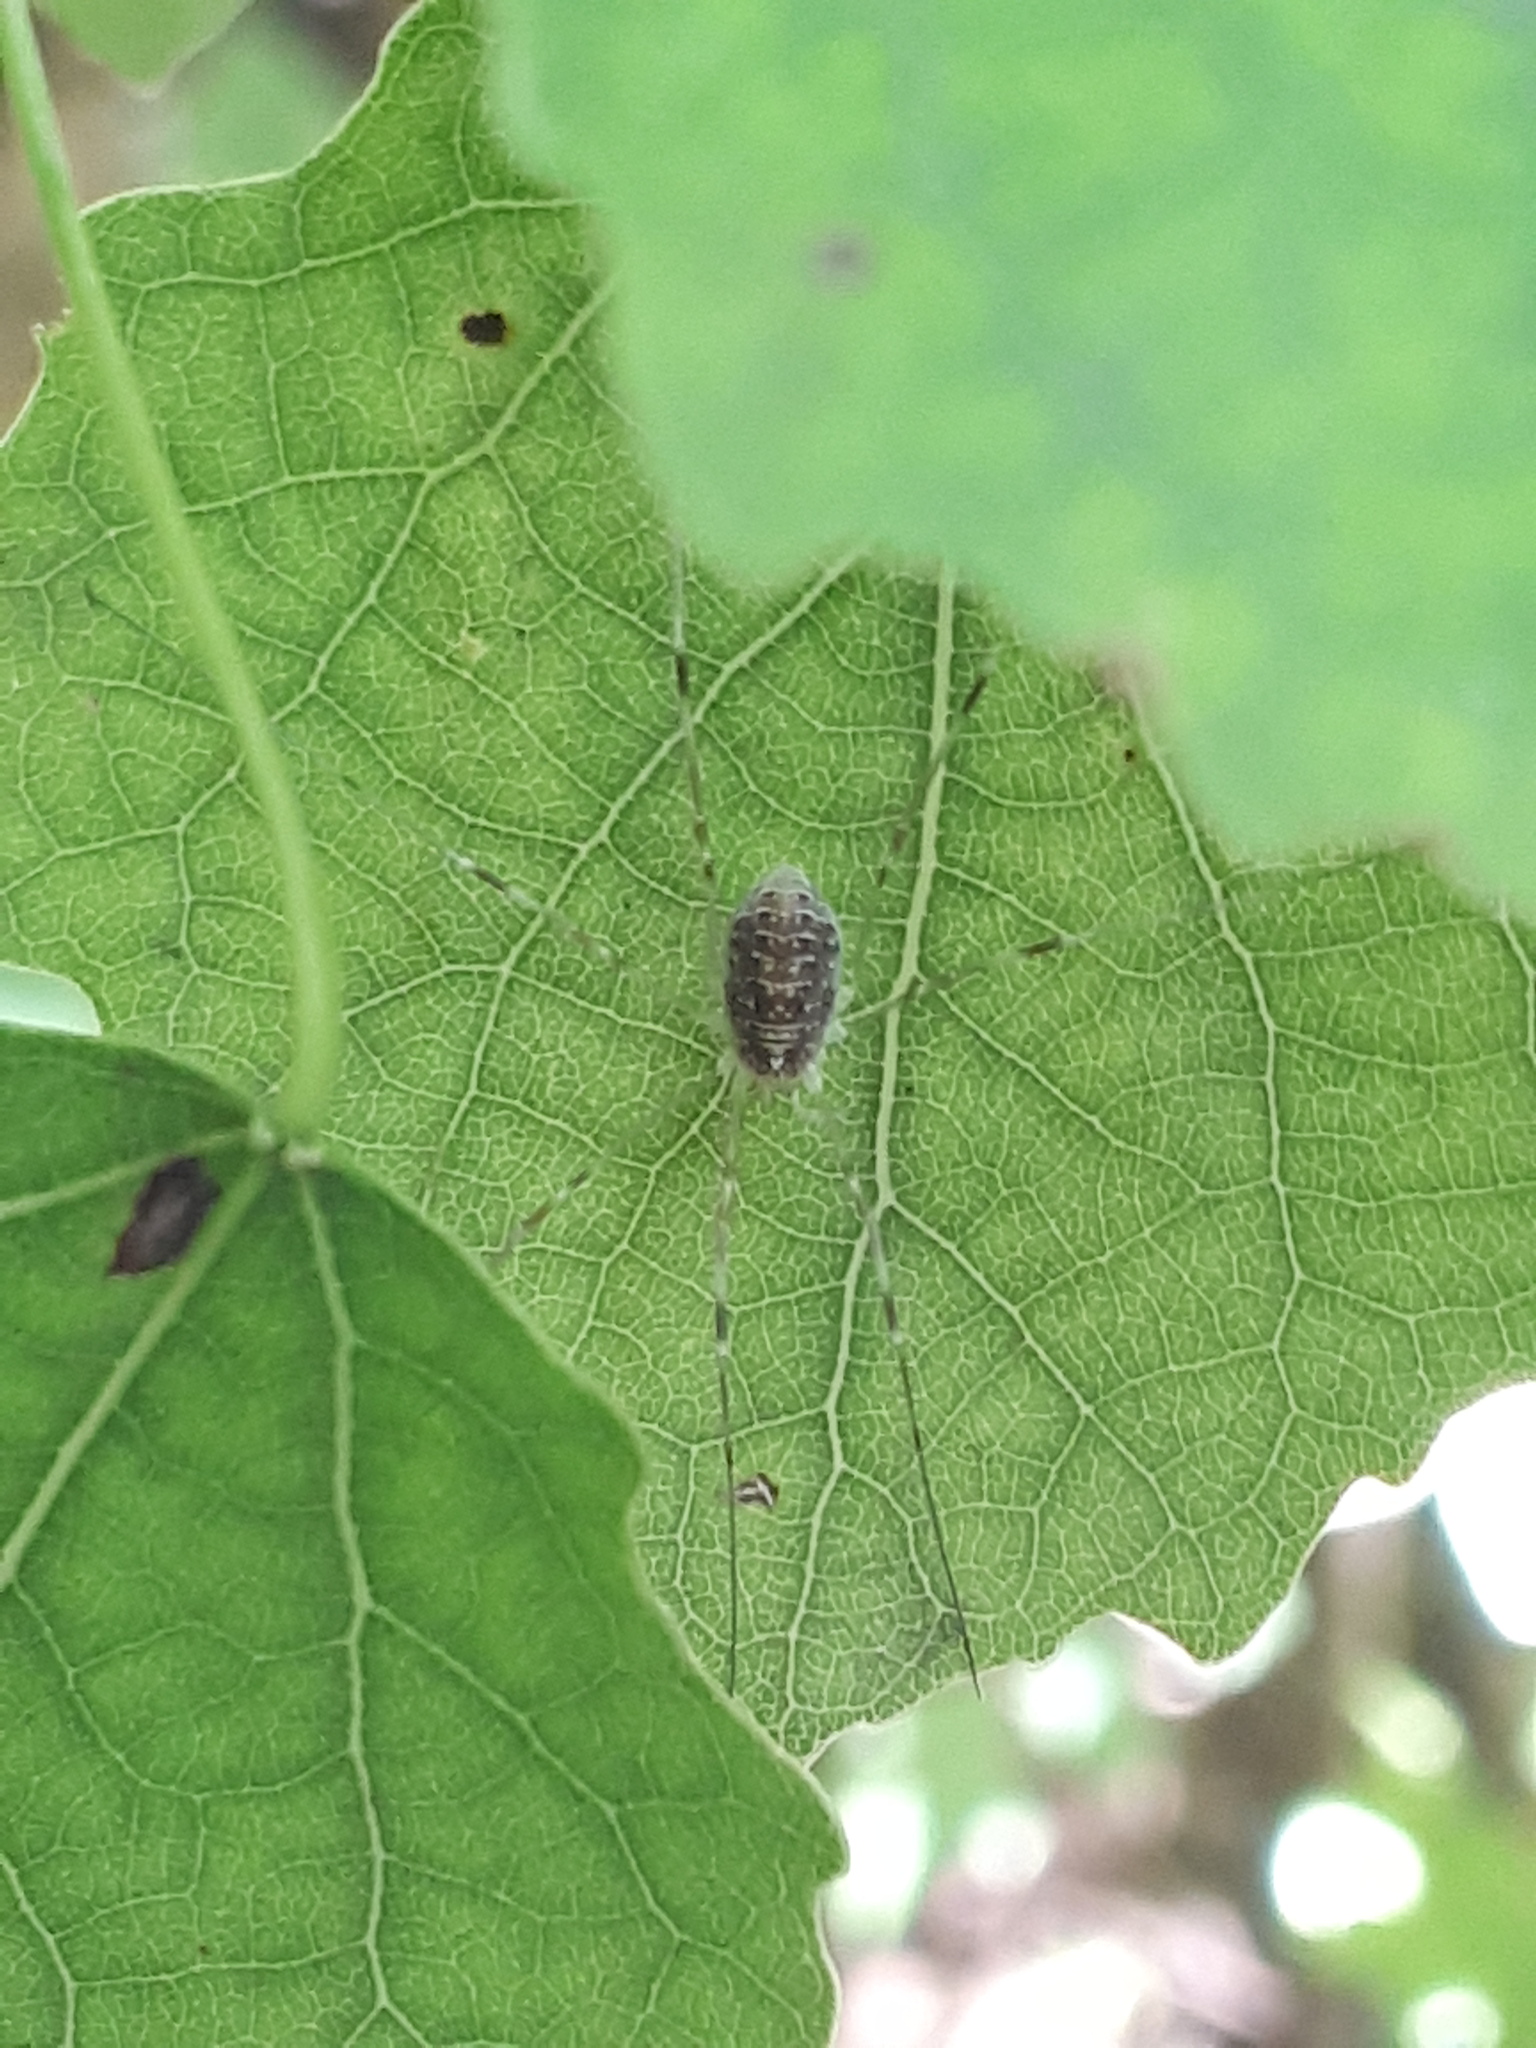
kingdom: Animalia
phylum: Arthropoda
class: Arachnida
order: Opiliones
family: Phalangiidae
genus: Opilio
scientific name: Opilio canestrinii
